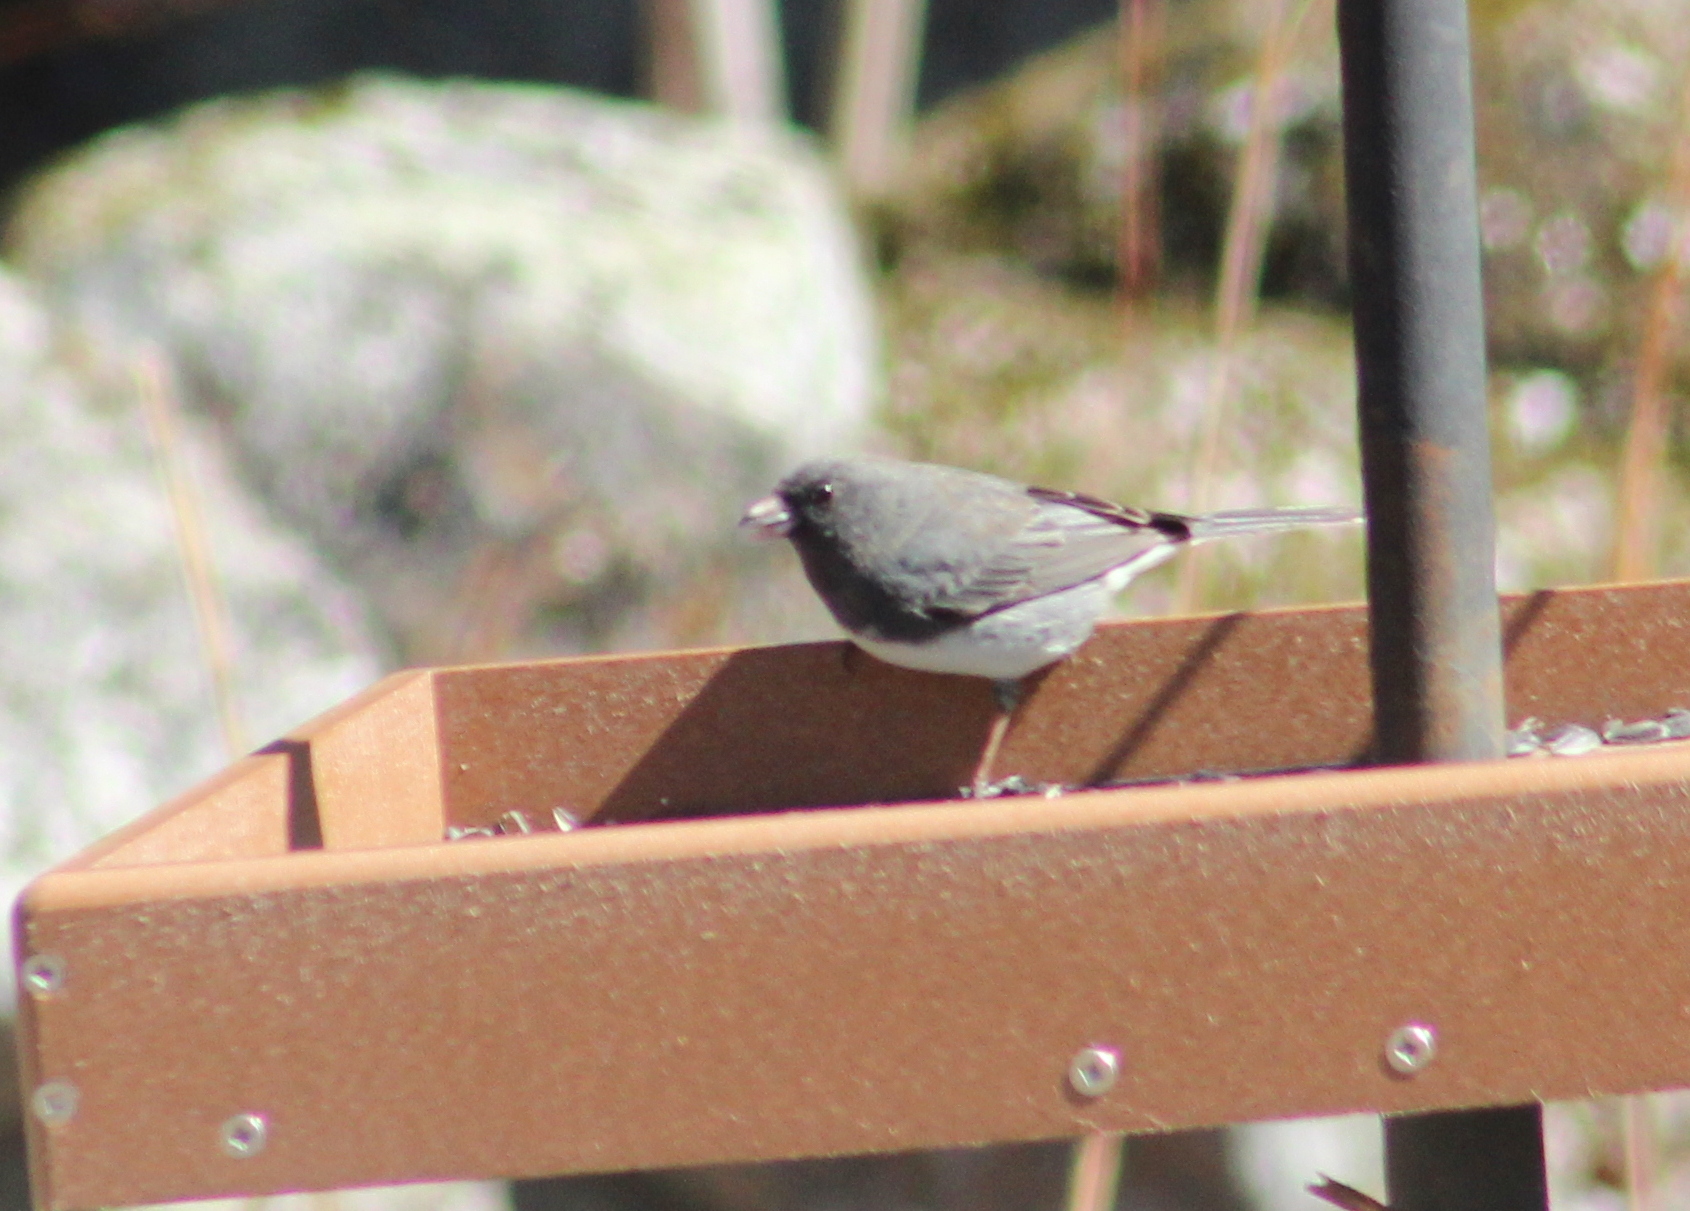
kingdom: Animalia
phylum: Chordata
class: Aves
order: Passeriformes
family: Passerellidae
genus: Junco
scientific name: Junco hyemalis
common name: Dark-eyed junco
